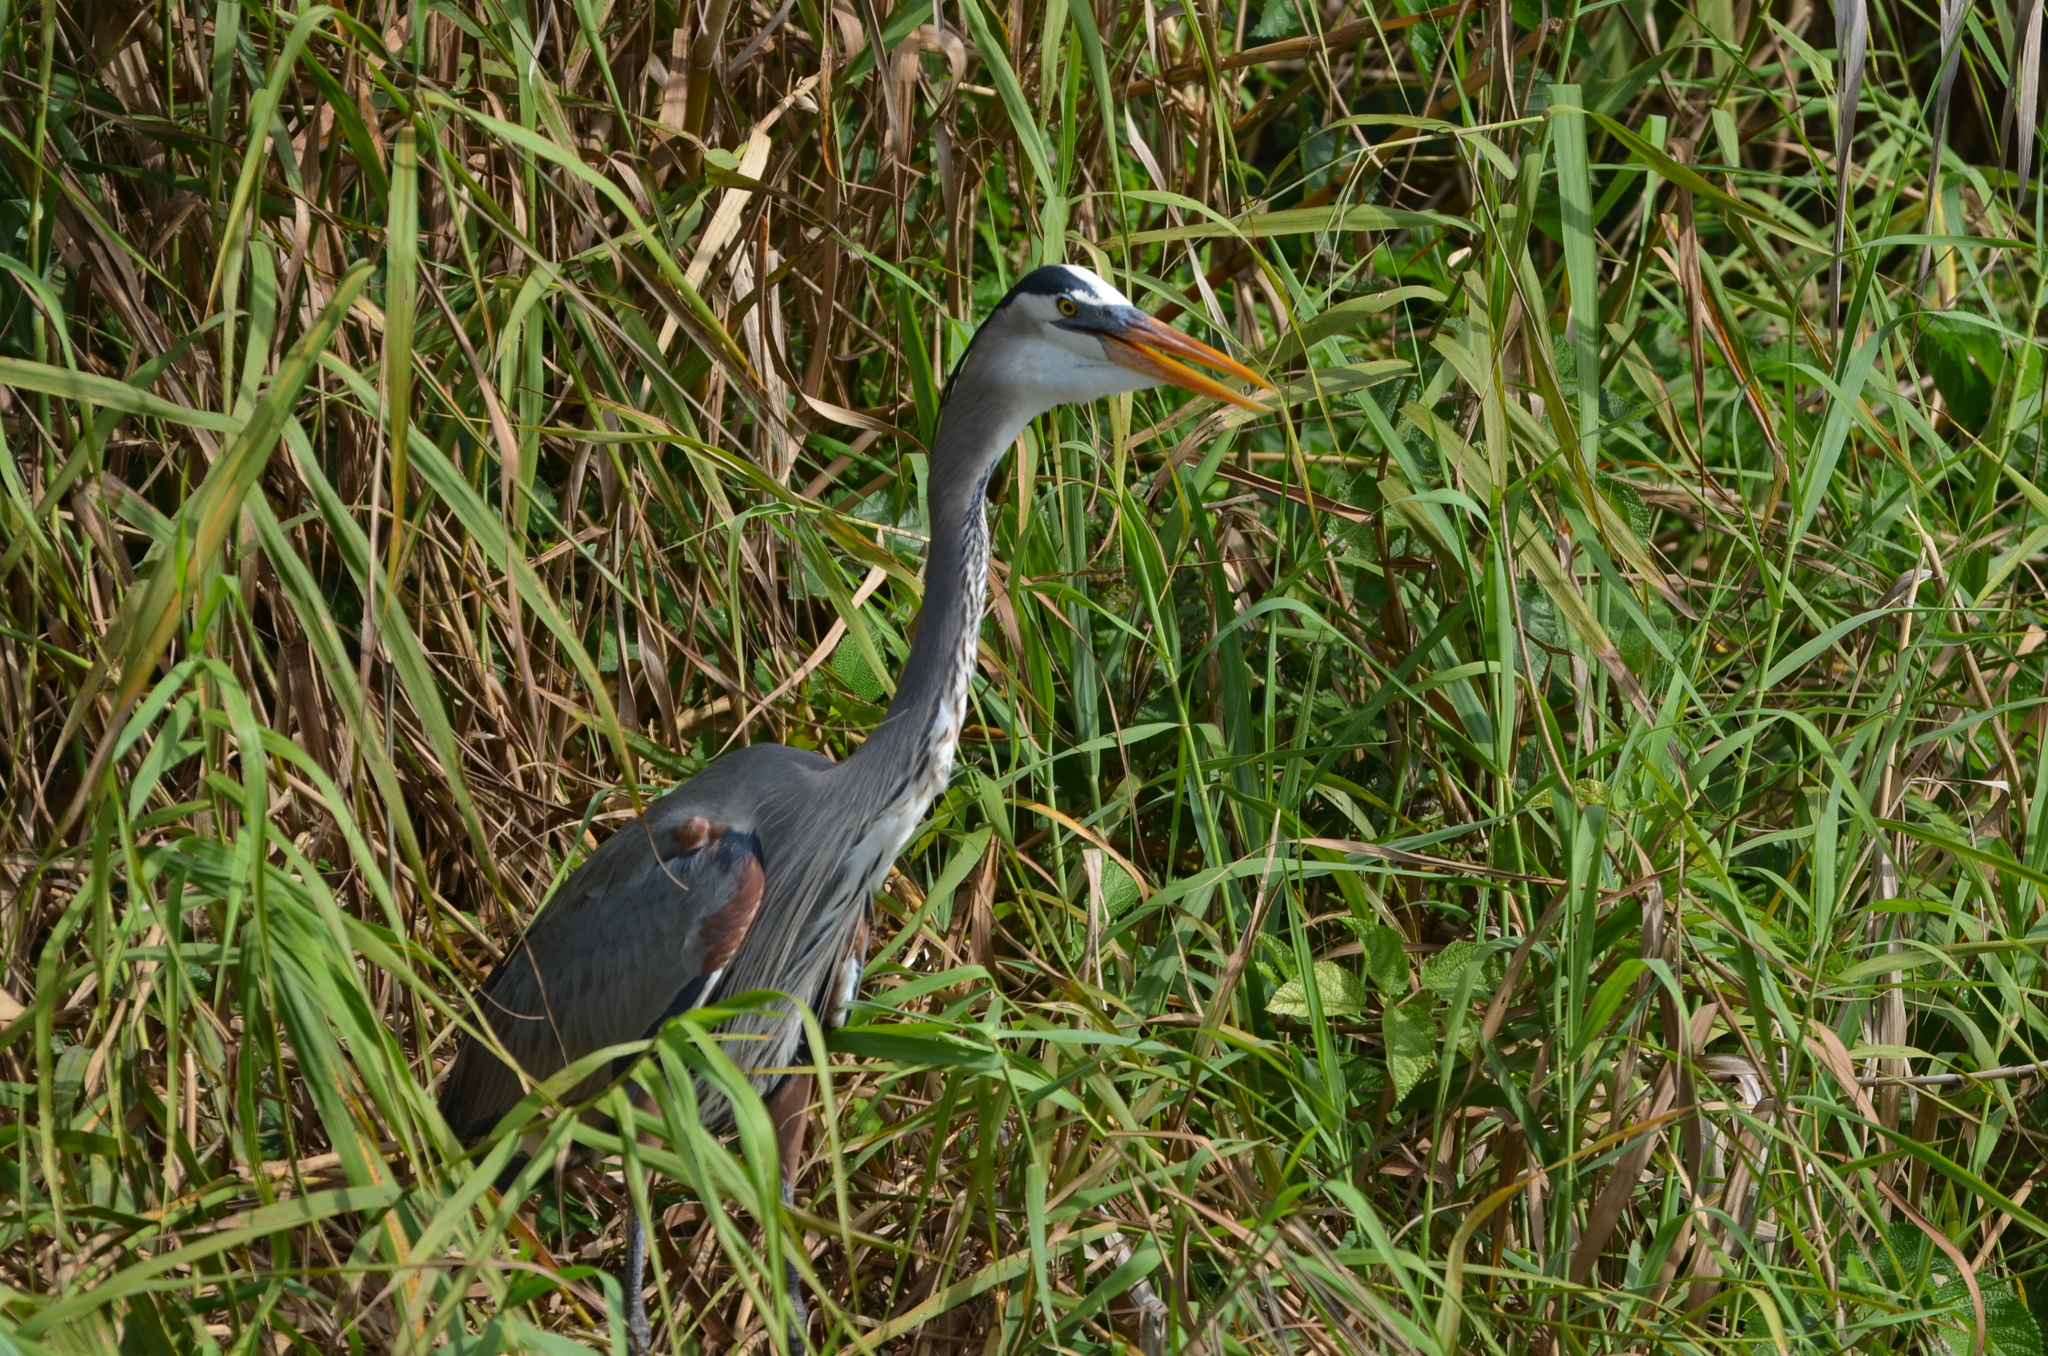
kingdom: Animalia
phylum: Chordata
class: Aves
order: Pelecaniformes
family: Ardeidae
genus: Ardea
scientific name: Ardea herodias
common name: Great blue heron
